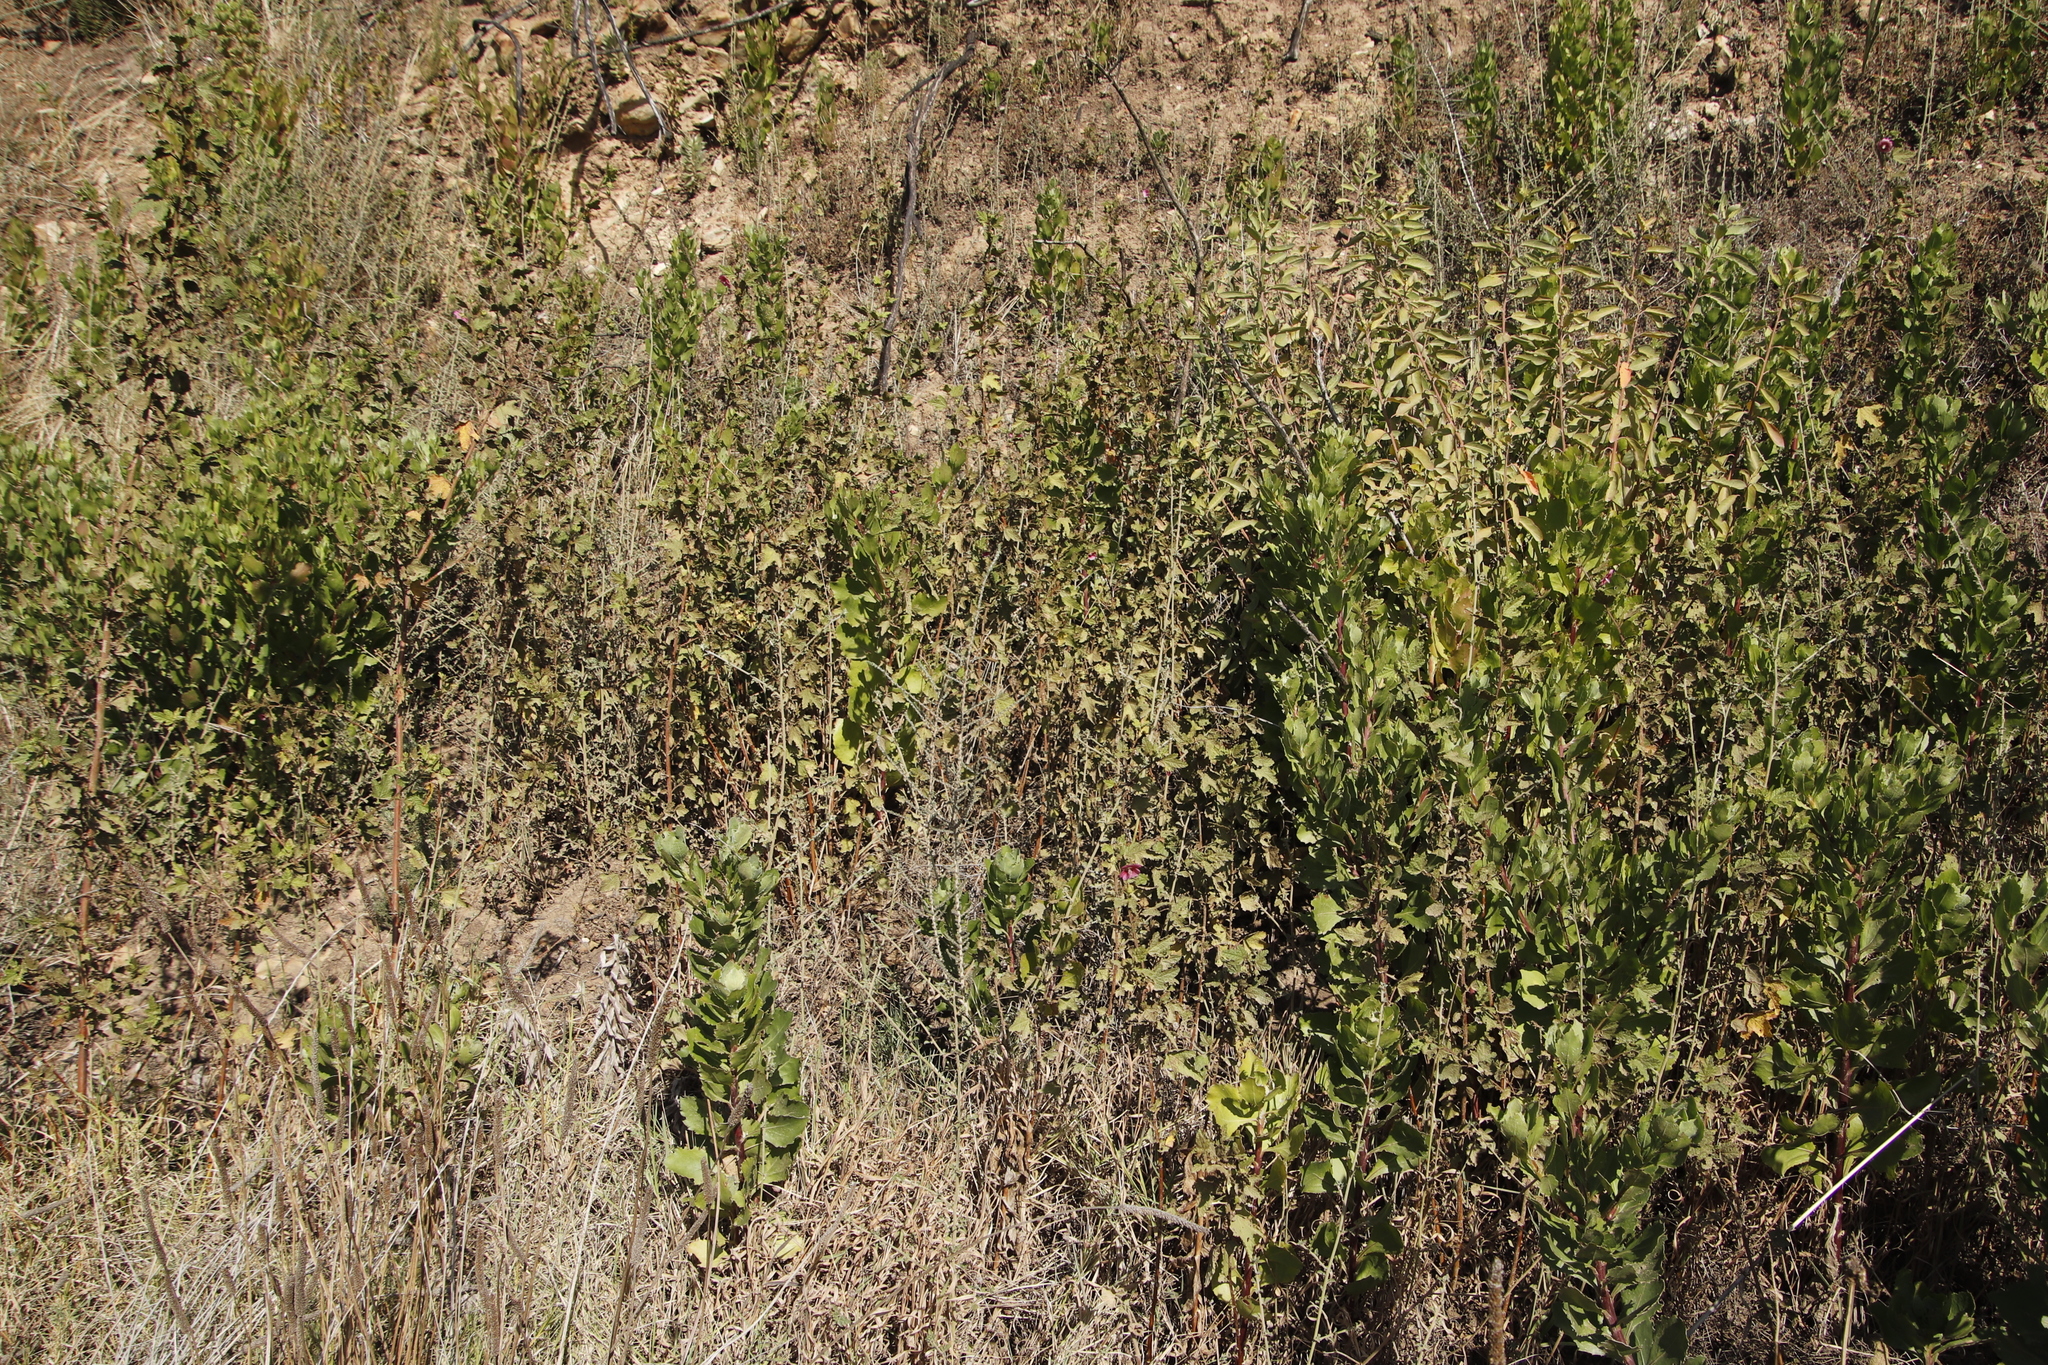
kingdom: Plantae
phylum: Tracheophyta
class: Magnoliopsida
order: Asterales
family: Asteraceae
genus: Osteospermum
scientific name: Osteospermum moniliferum
